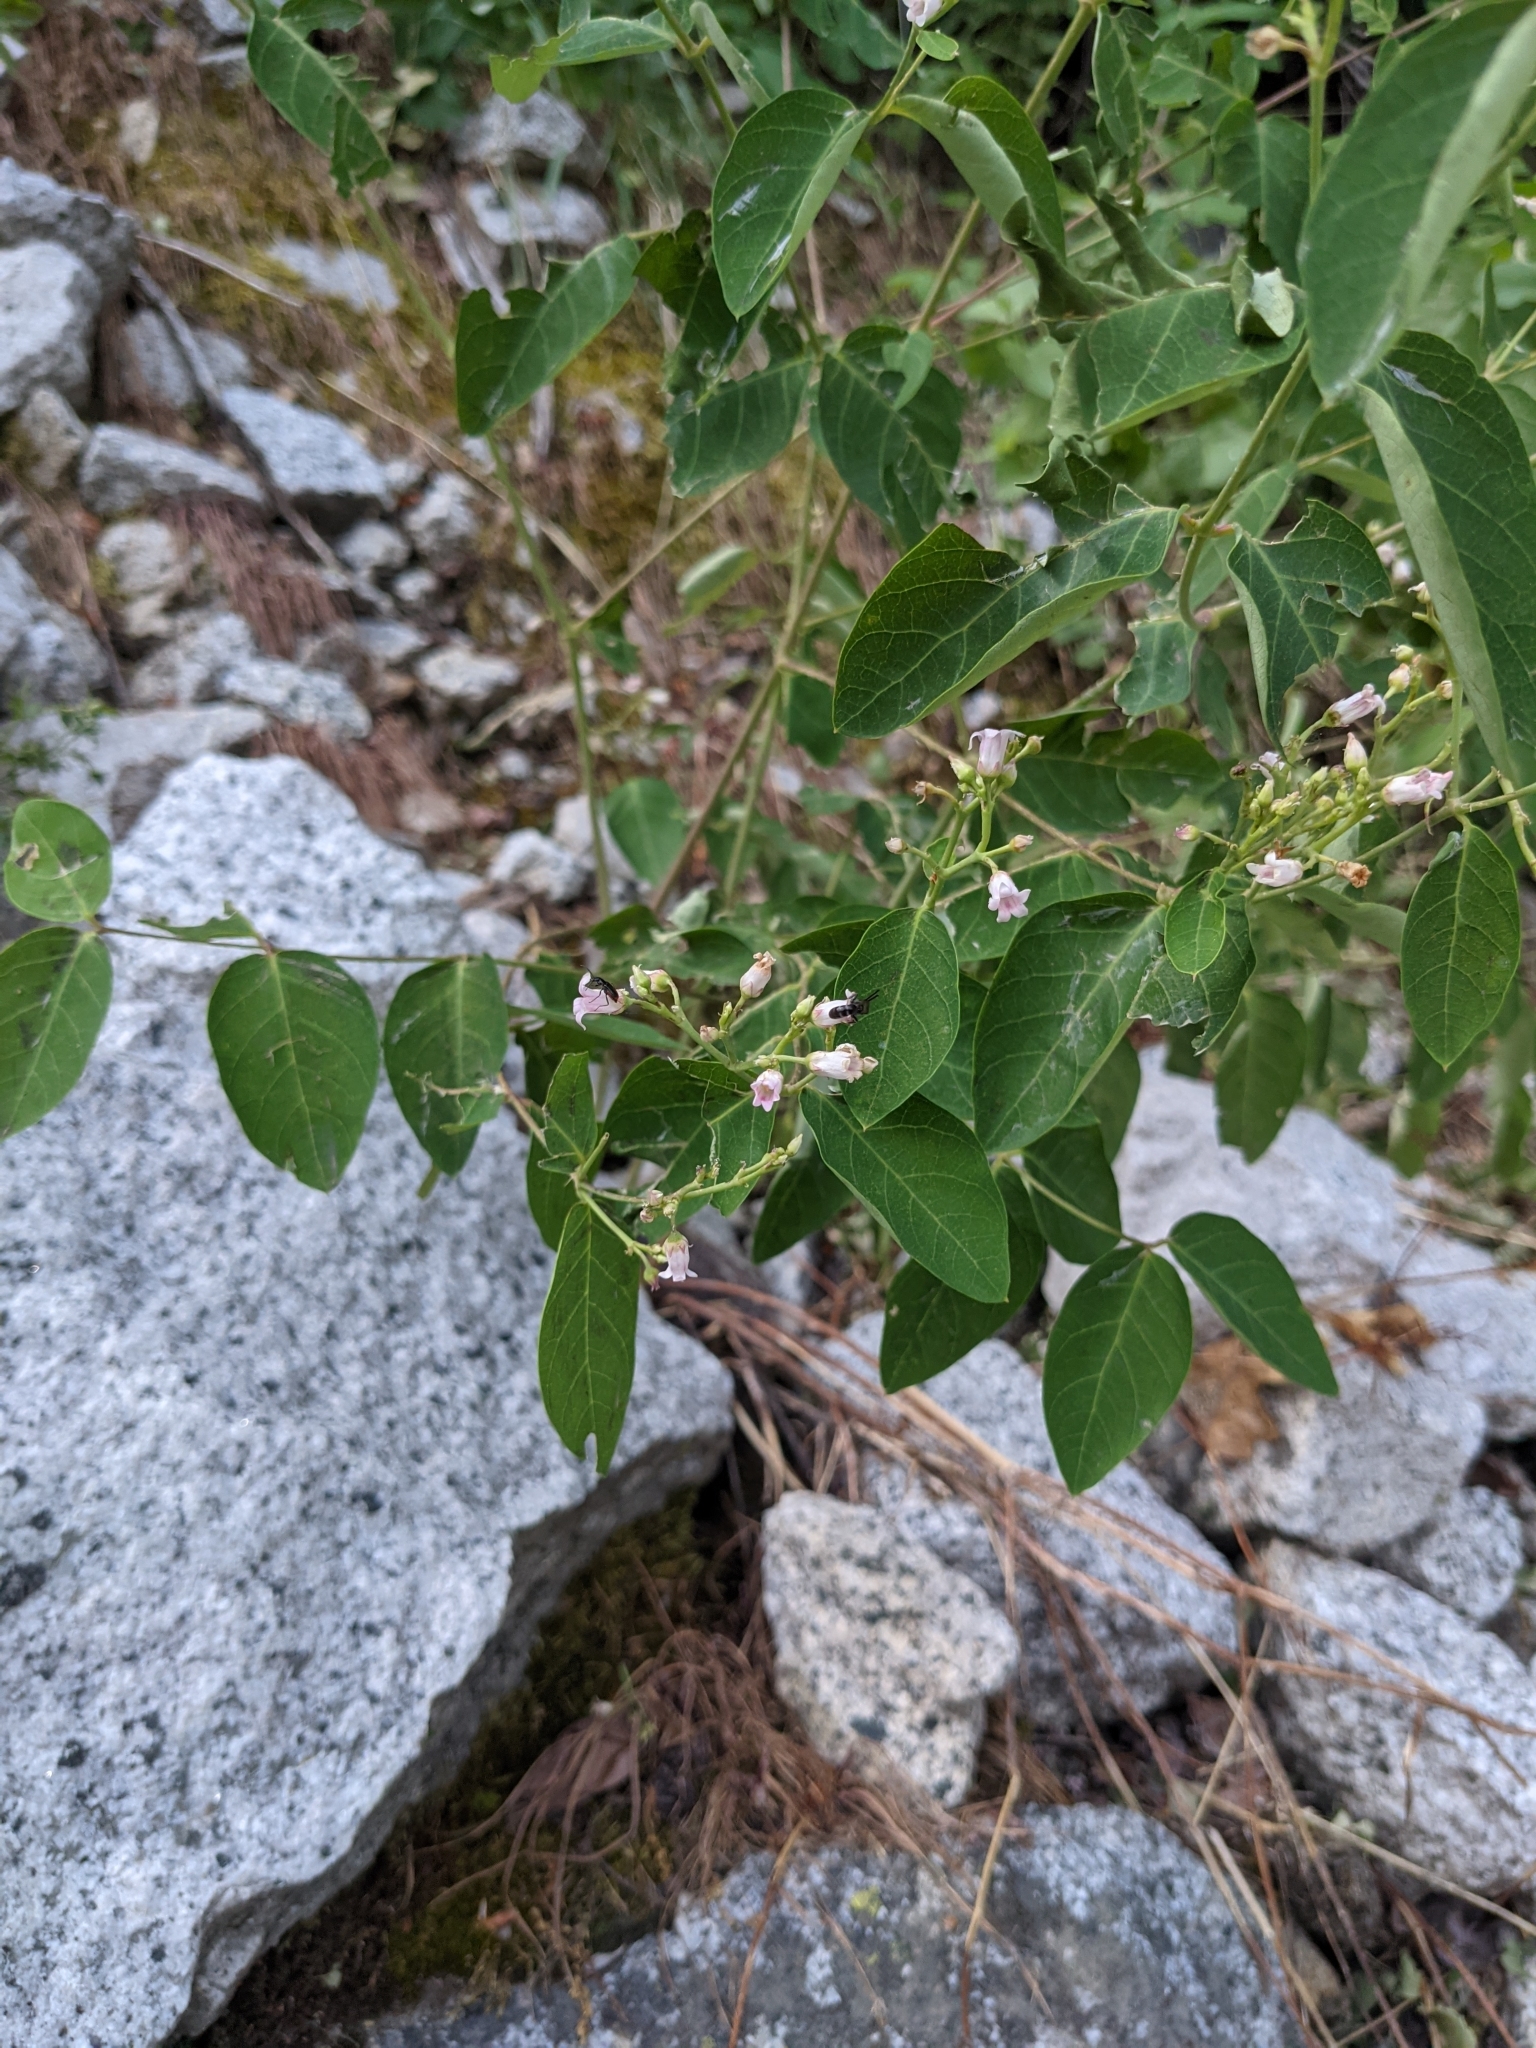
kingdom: Plantae
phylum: Tracheophyta
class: Magnoliopsida
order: Gentianales
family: Apocynaceae
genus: Apocynum
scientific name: Apocynum androsaemifolium
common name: Spreading dogbane
